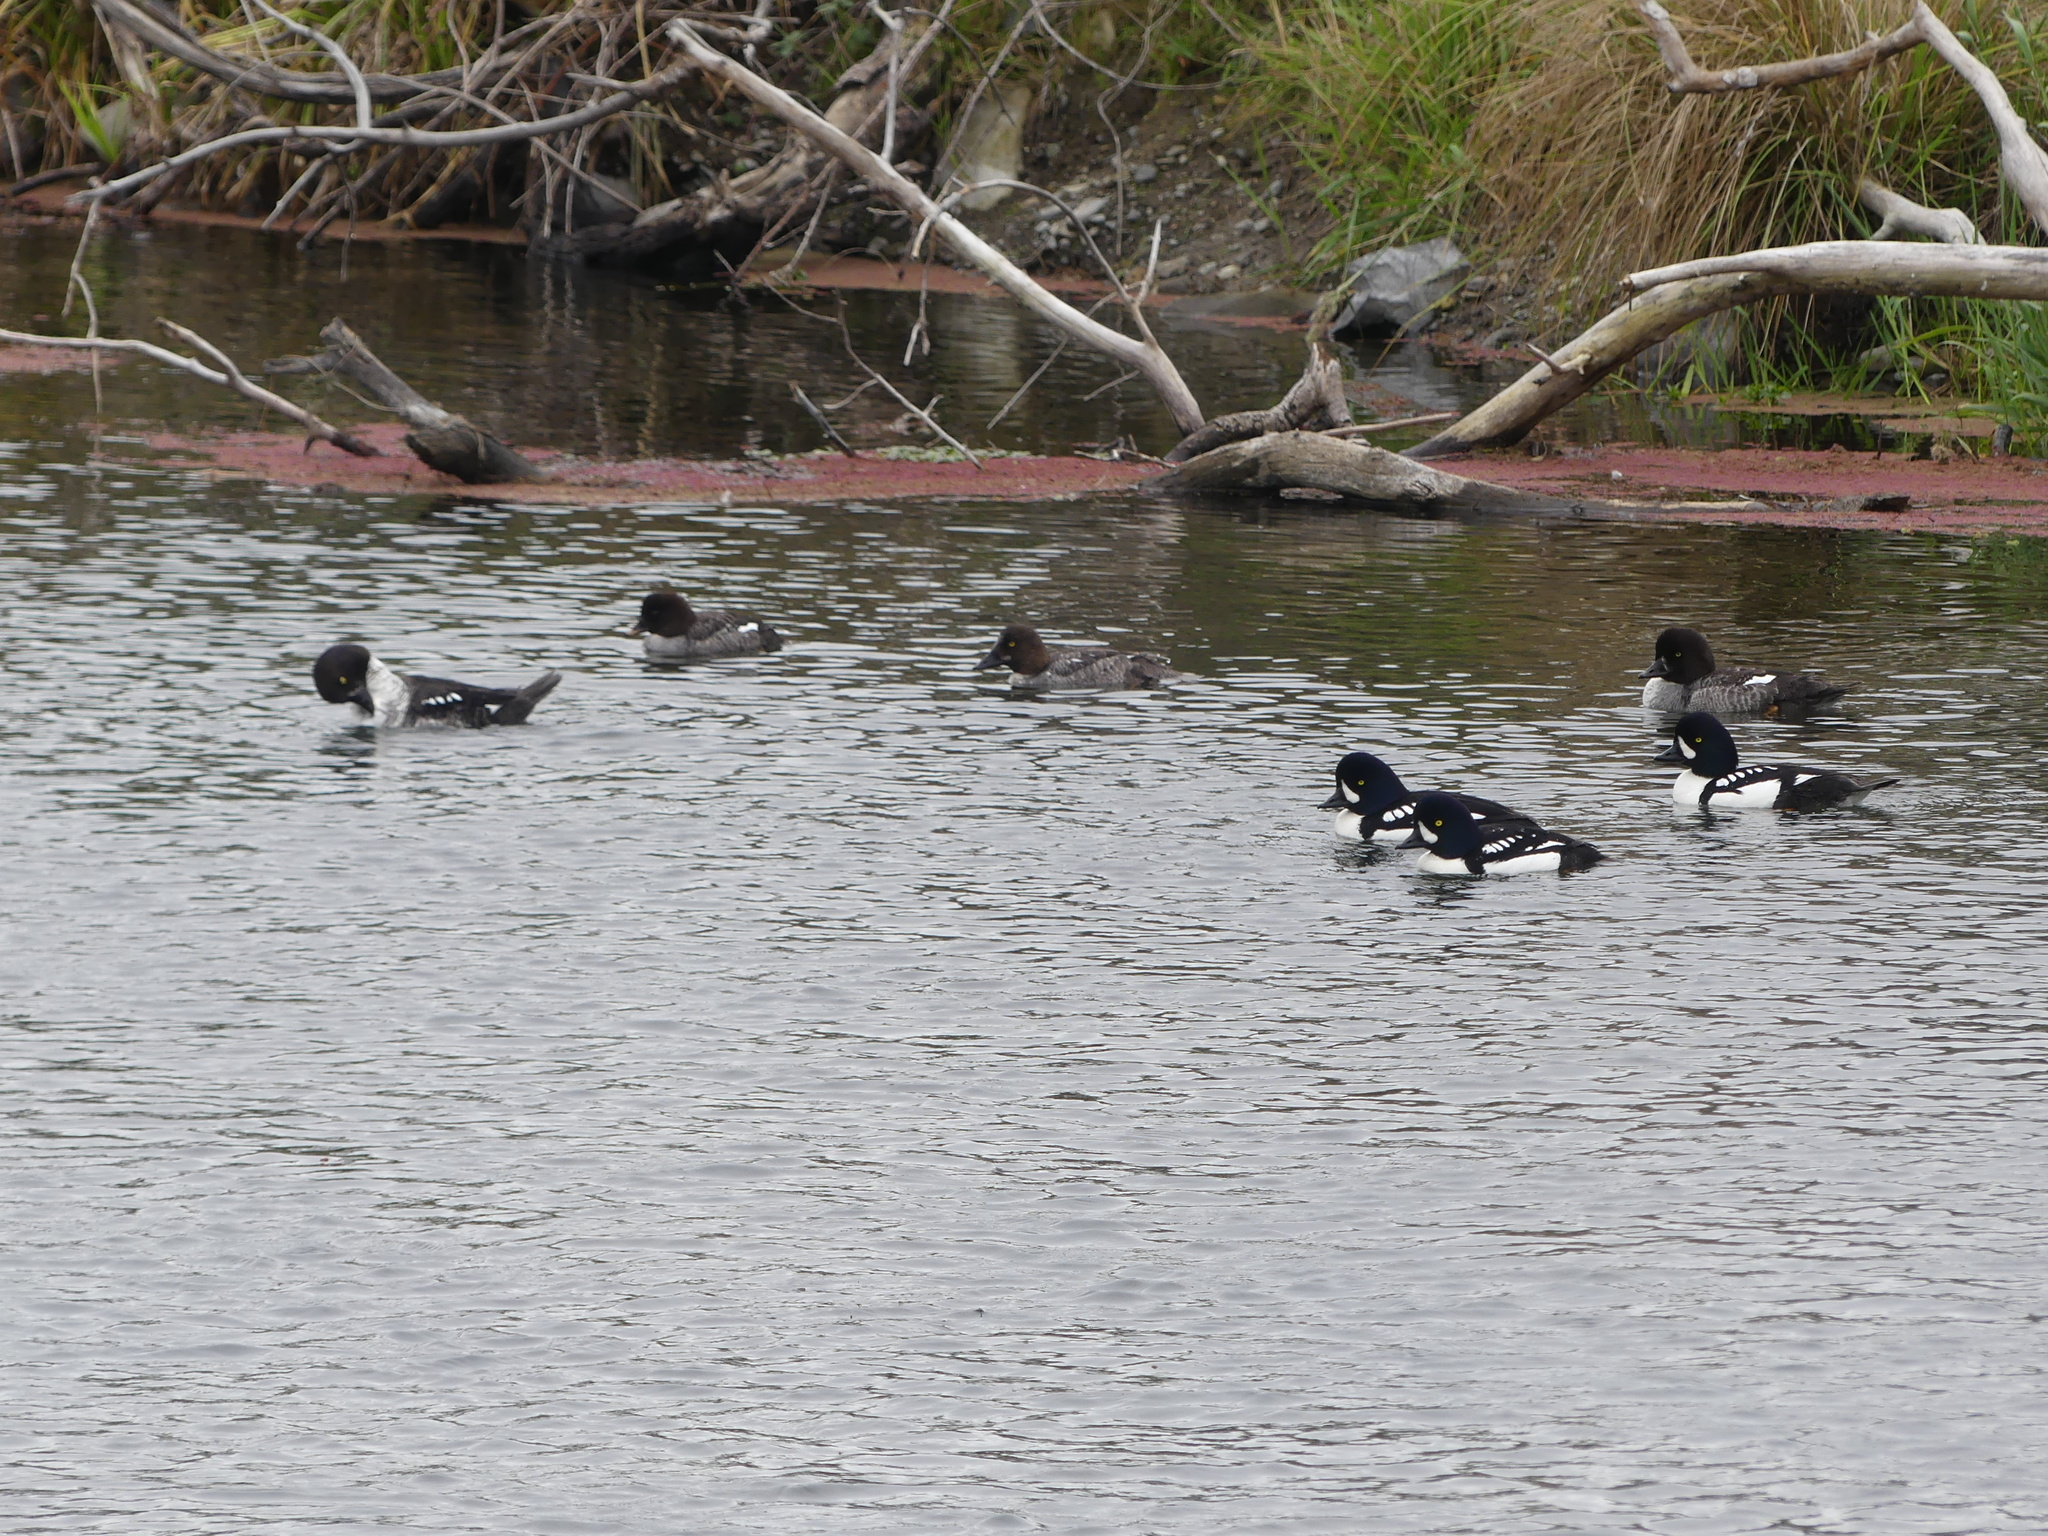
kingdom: Animalia
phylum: Chordata
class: Aves
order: Anseriformes
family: Anatidae
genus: Bucephala
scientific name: Bucephala islandica
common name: Barrow's goldeneye
